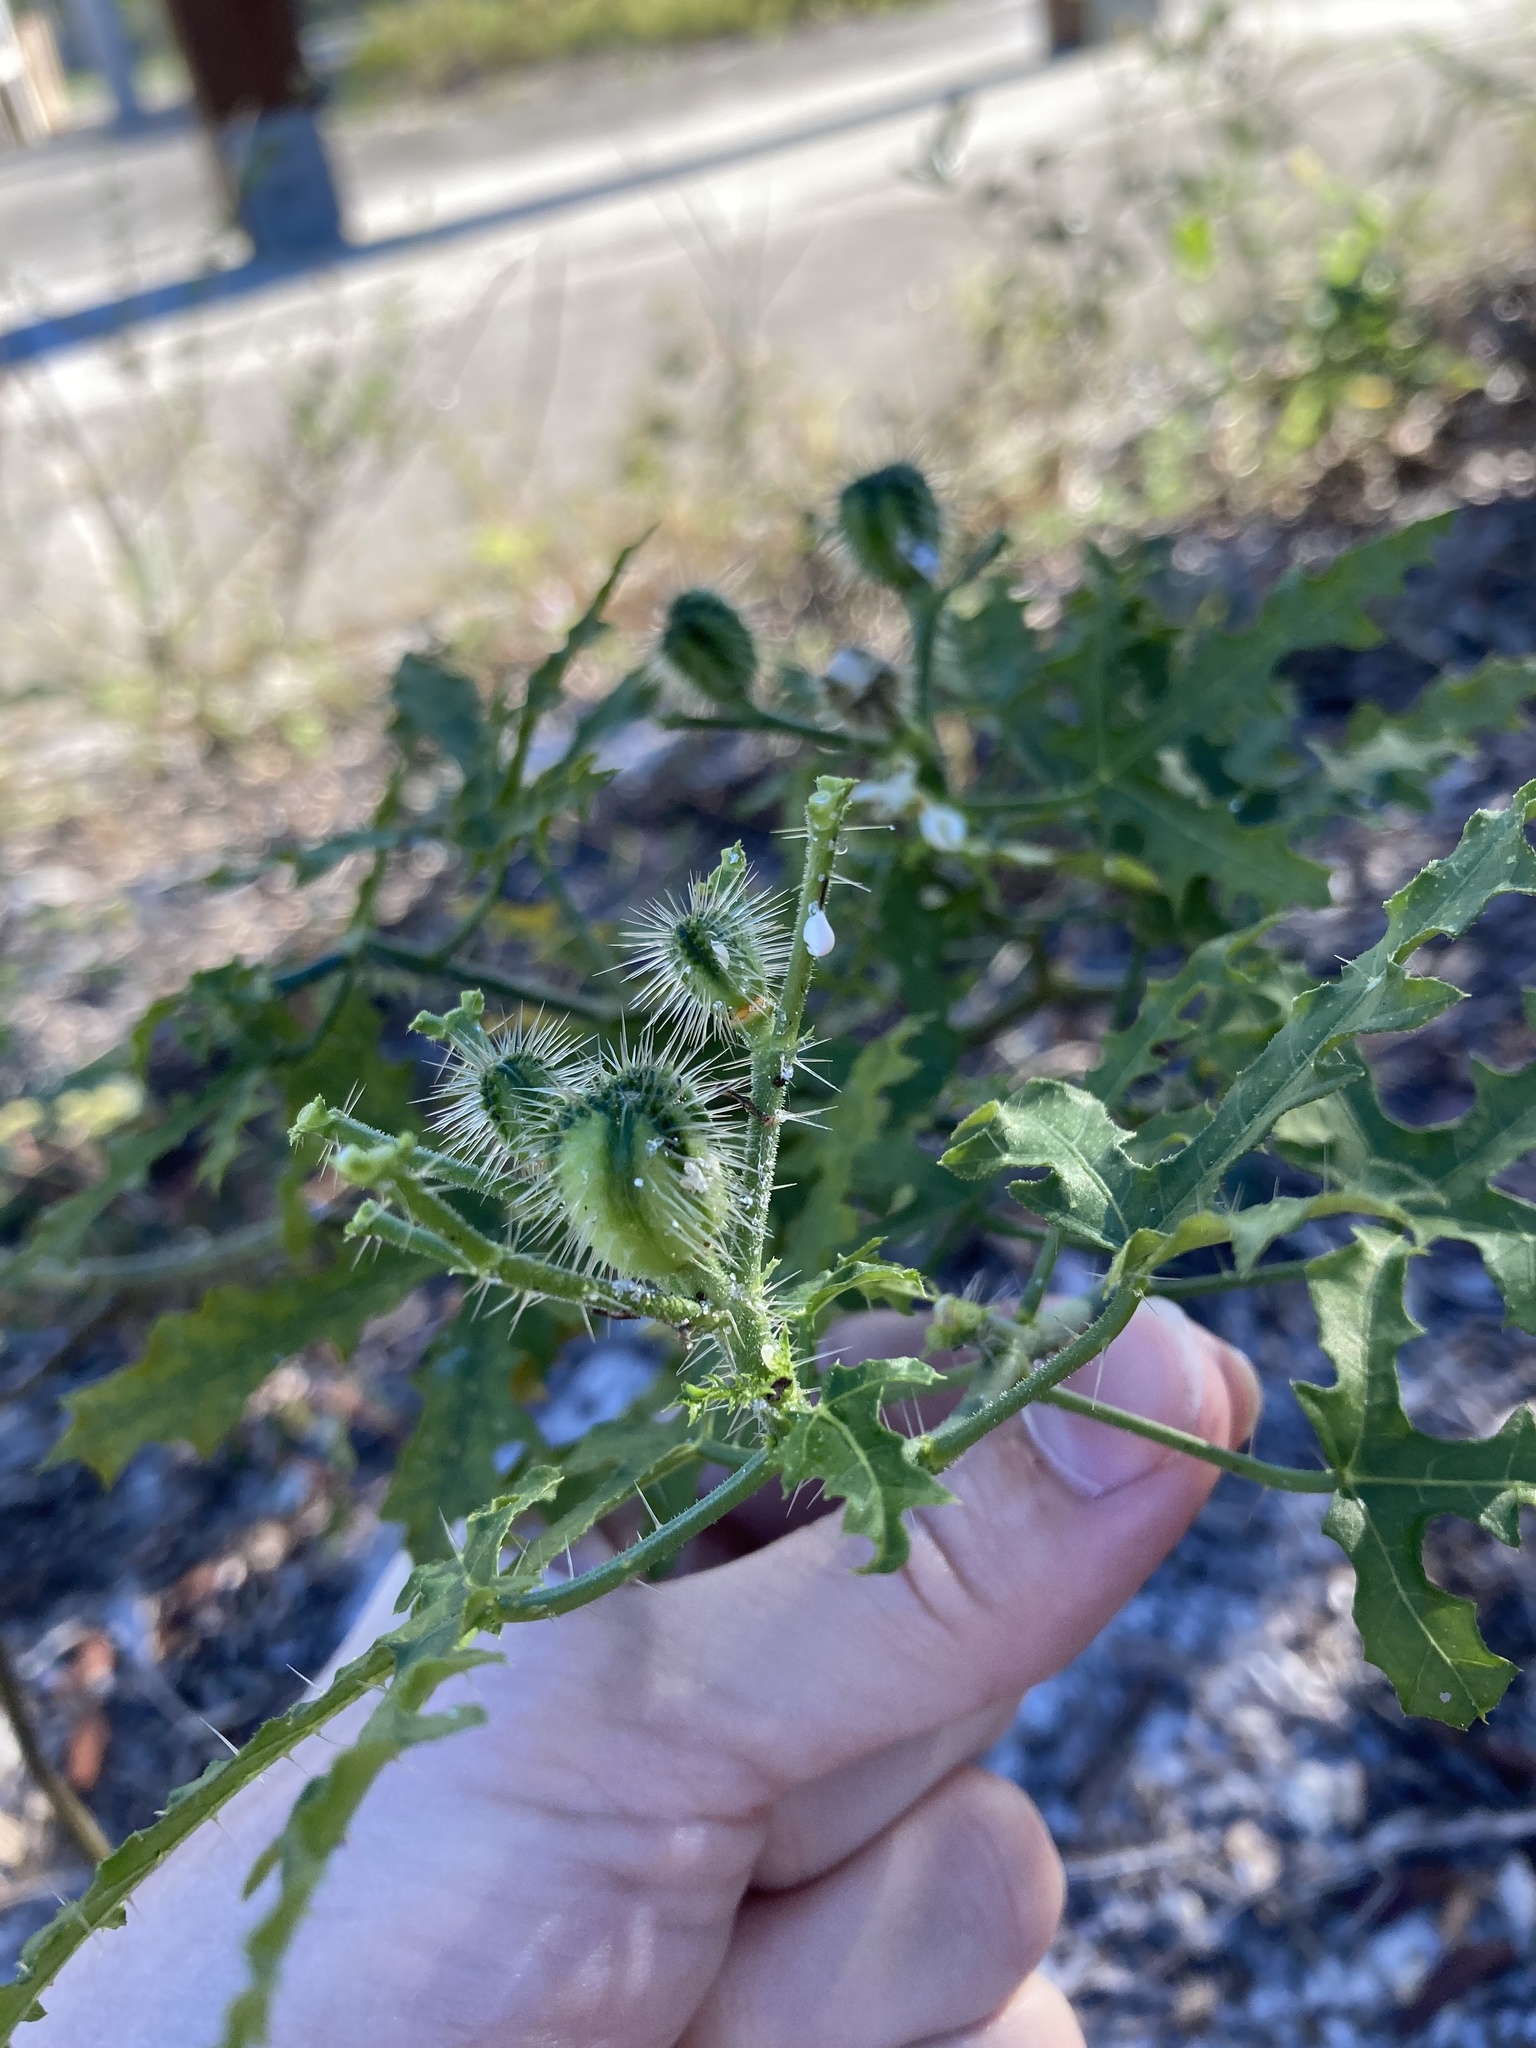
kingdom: Plantae
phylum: Tracheophyta
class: Magnoliopsida
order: Malpighiales
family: Euphorbiaceae
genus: Cnidoscolus
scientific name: Cnidoscolus stimulosus
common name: Bull-nettle
